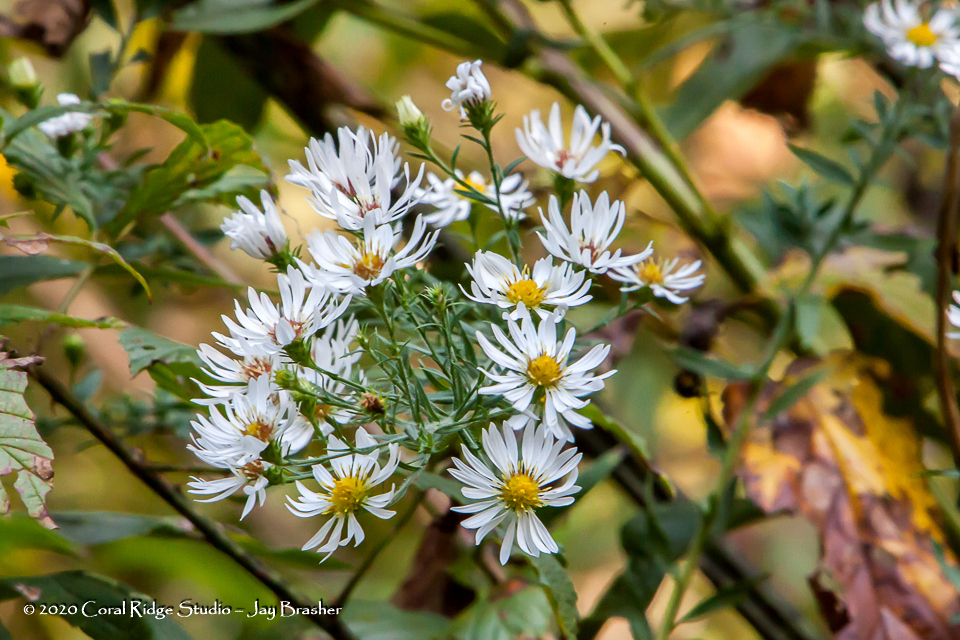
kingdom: Plantae
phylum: Tracheophyta
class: Magnoliopsida
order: Asterales
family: Asteraceae
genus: Symphyotrichum
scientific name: Symphyotrichum pilosum
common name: Awl aster
